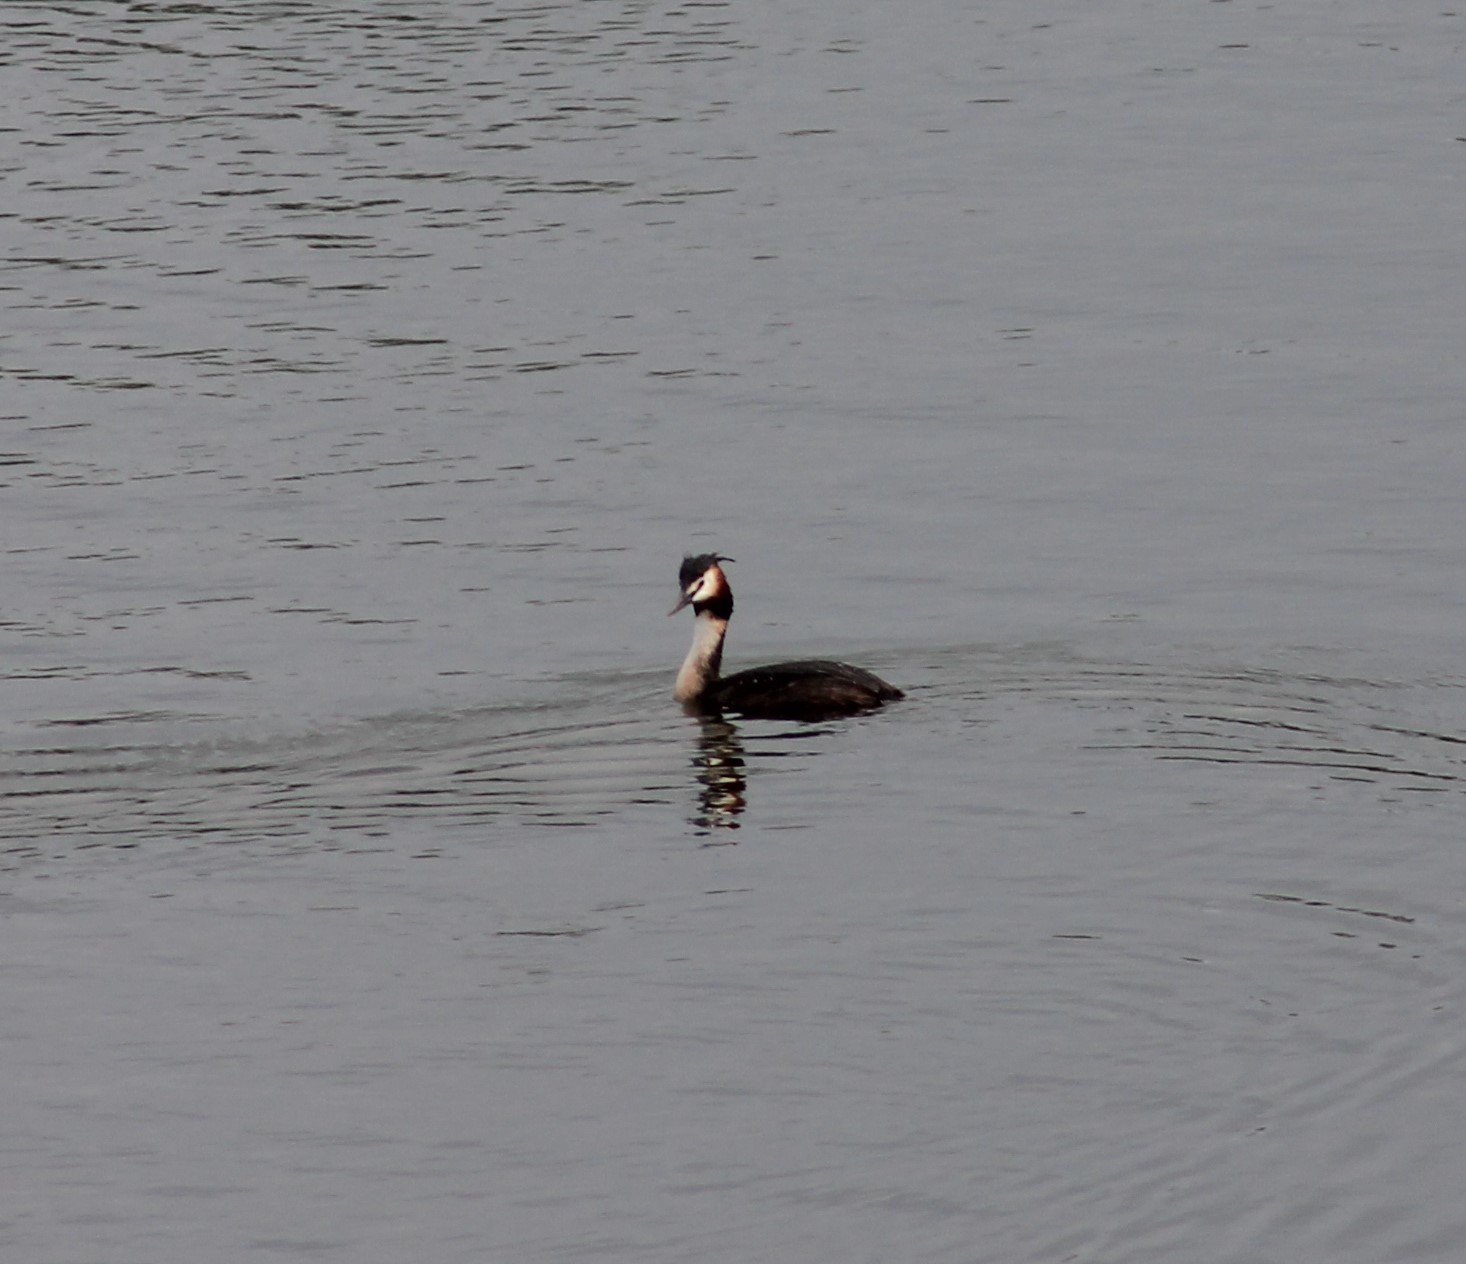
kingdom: Animalia
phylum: Chordata
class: Aves
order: Podicipediformes
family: Podicipedidae
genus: Podiceps
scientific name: Podiceps cristatus
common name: Great crested grebe
